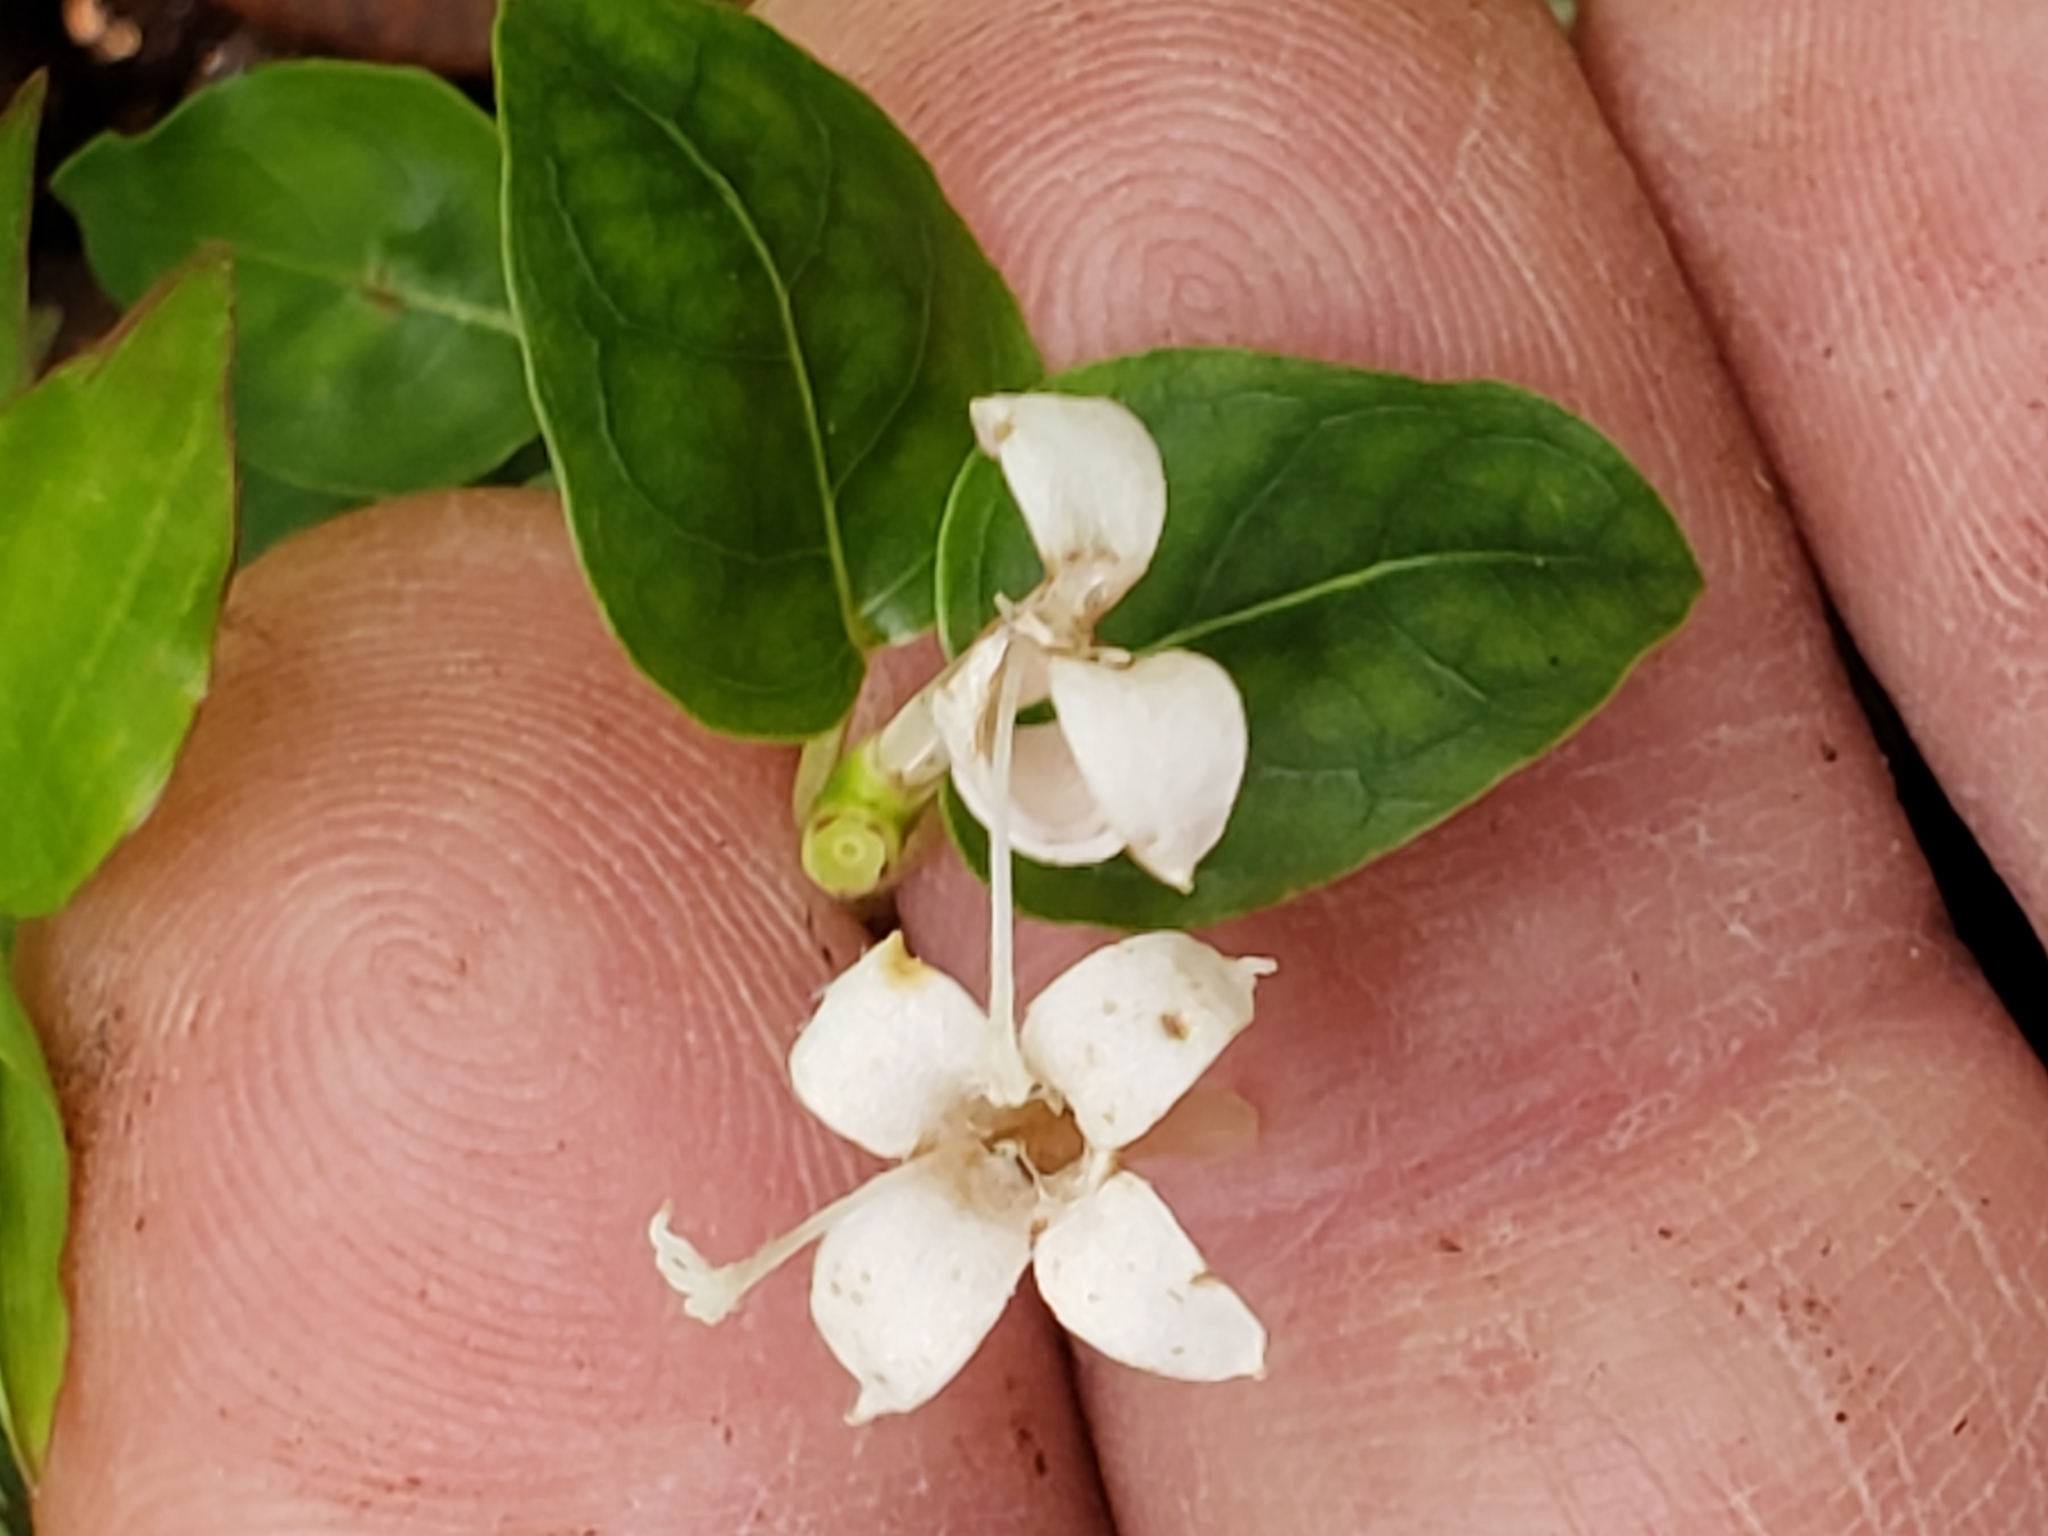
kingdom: Plantae
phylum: Tracheophyta
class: Magnoliopsida
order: Gentianales
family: Rubiaceae
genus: Mitchella
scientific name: Mitchella repens
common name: Partridge-berry
